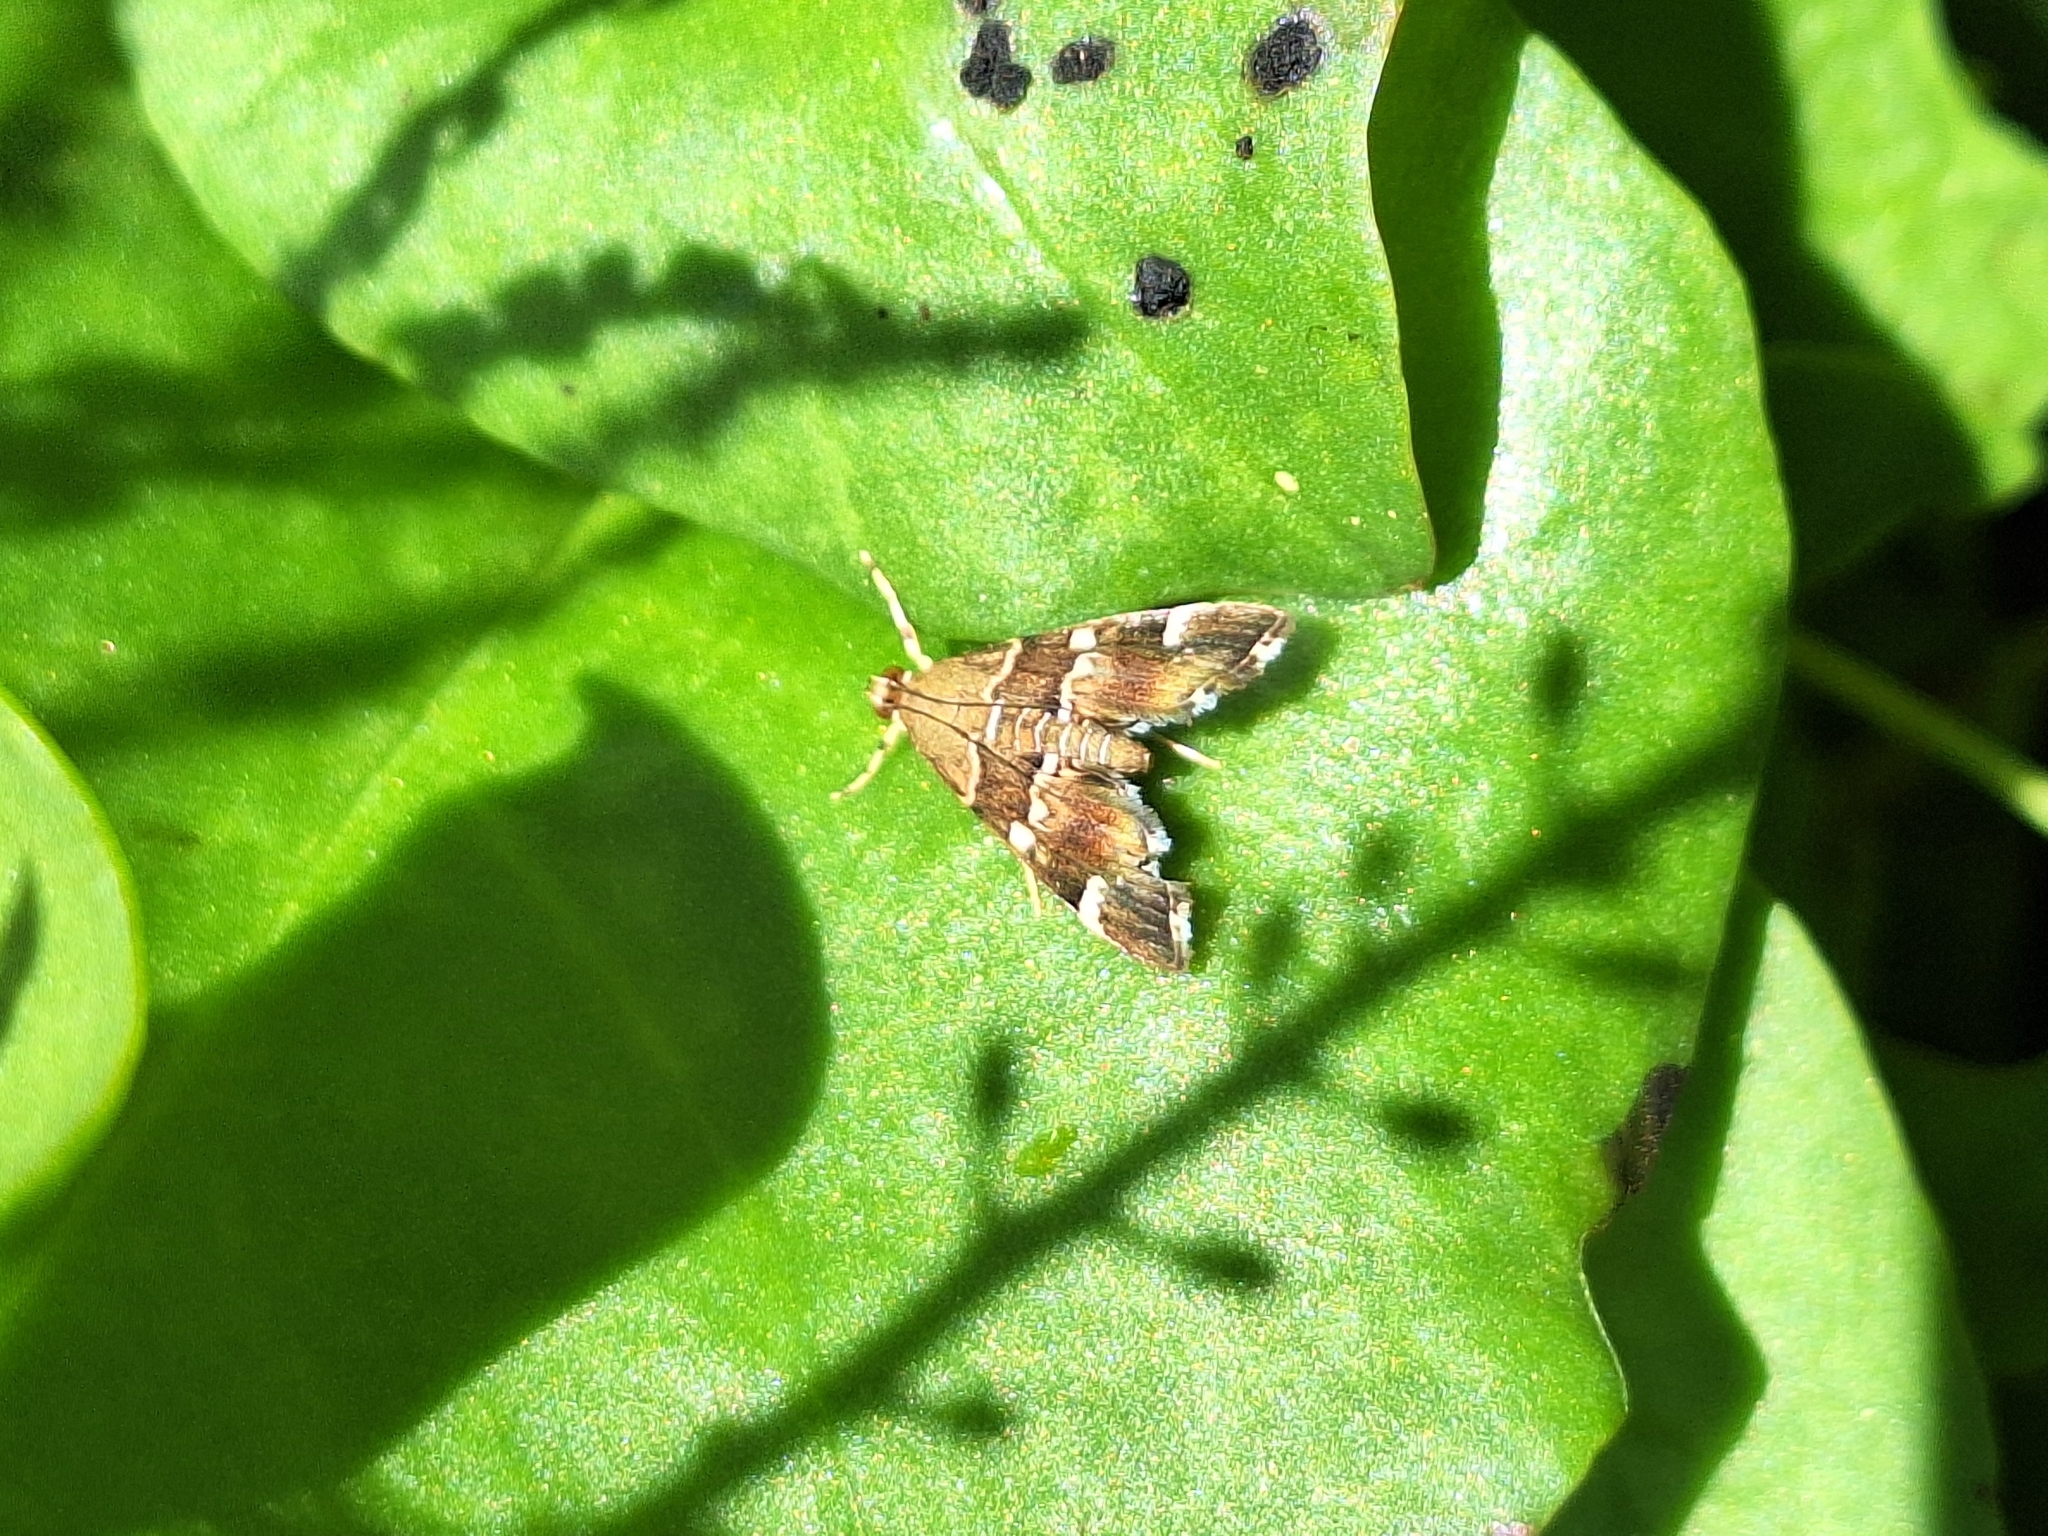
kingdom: Animalia
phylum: Arthropoda
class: Insecta
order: Lepidoptera
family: Crambidae
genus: Hymenia
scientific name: Hymenia perspectalis
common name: Spotted beet webworm
